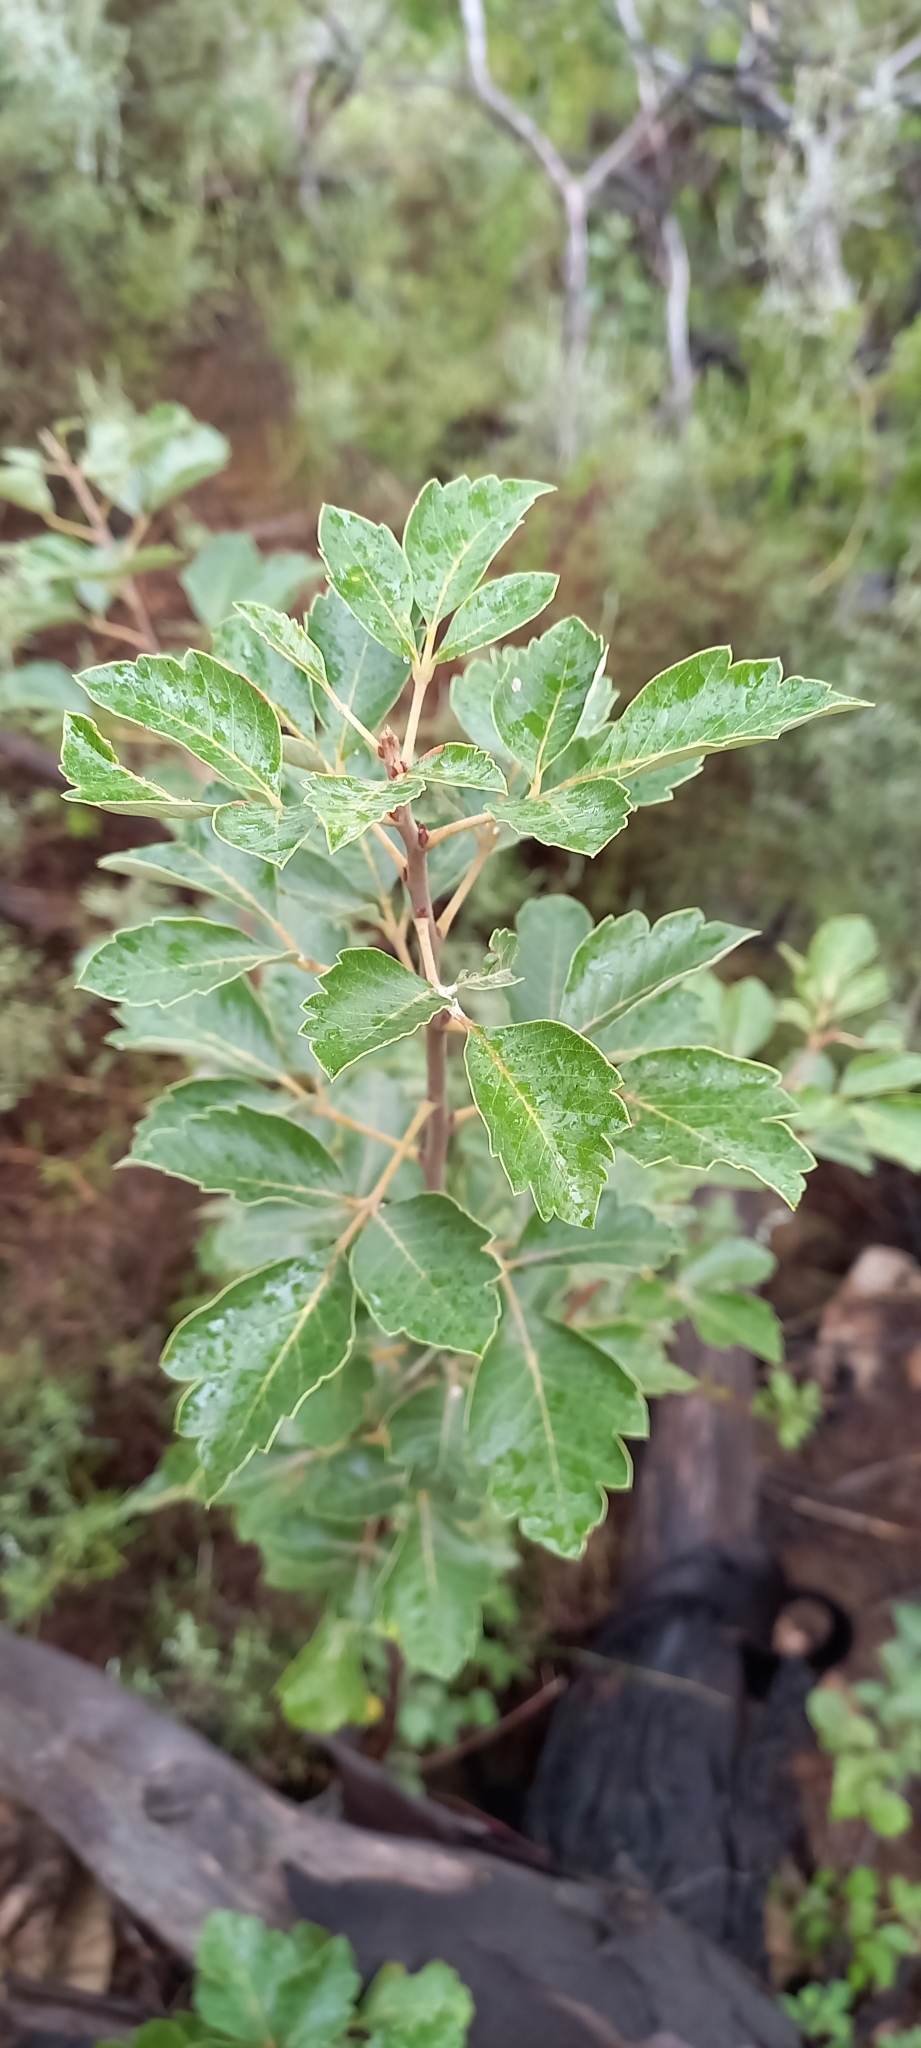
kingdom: Plantae
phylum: Tracheophyta
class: Magnoliopsida
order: Sapindales
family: Anacardiaceae
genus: Searsia
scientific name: Searsia tomentosa
